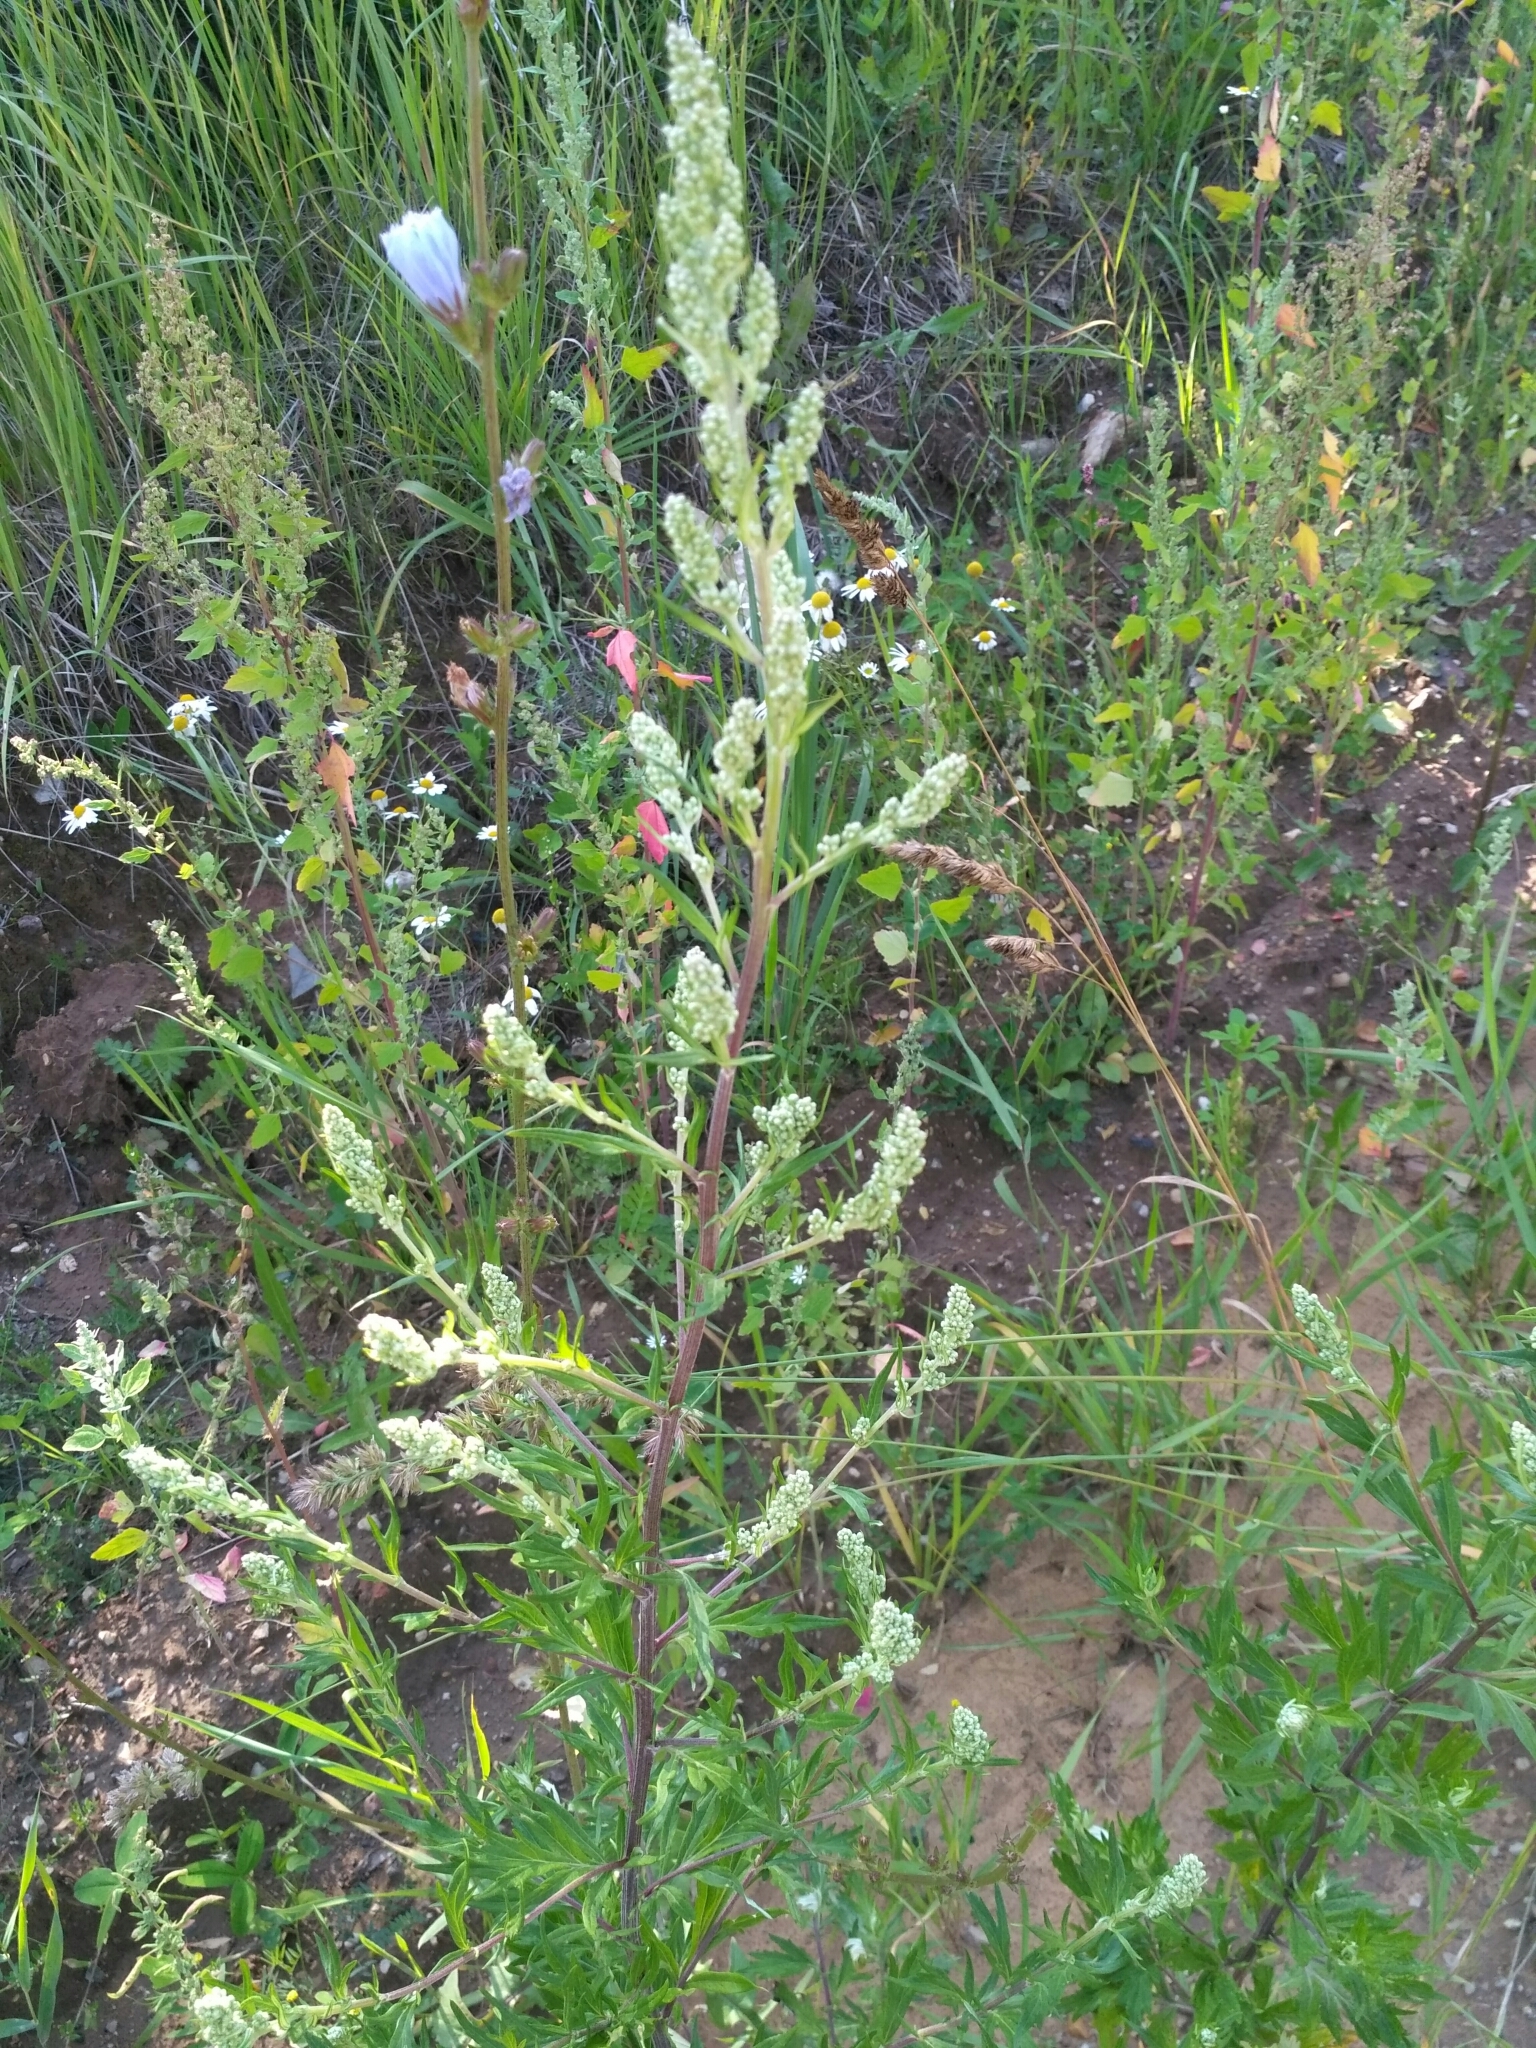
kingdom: Plantae
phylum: Tracheophyta
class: Magnoliopsida
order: Asterales
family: Asteraceae
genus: Artemisia
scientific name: Artemisia vulgaris
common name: Mugwort
